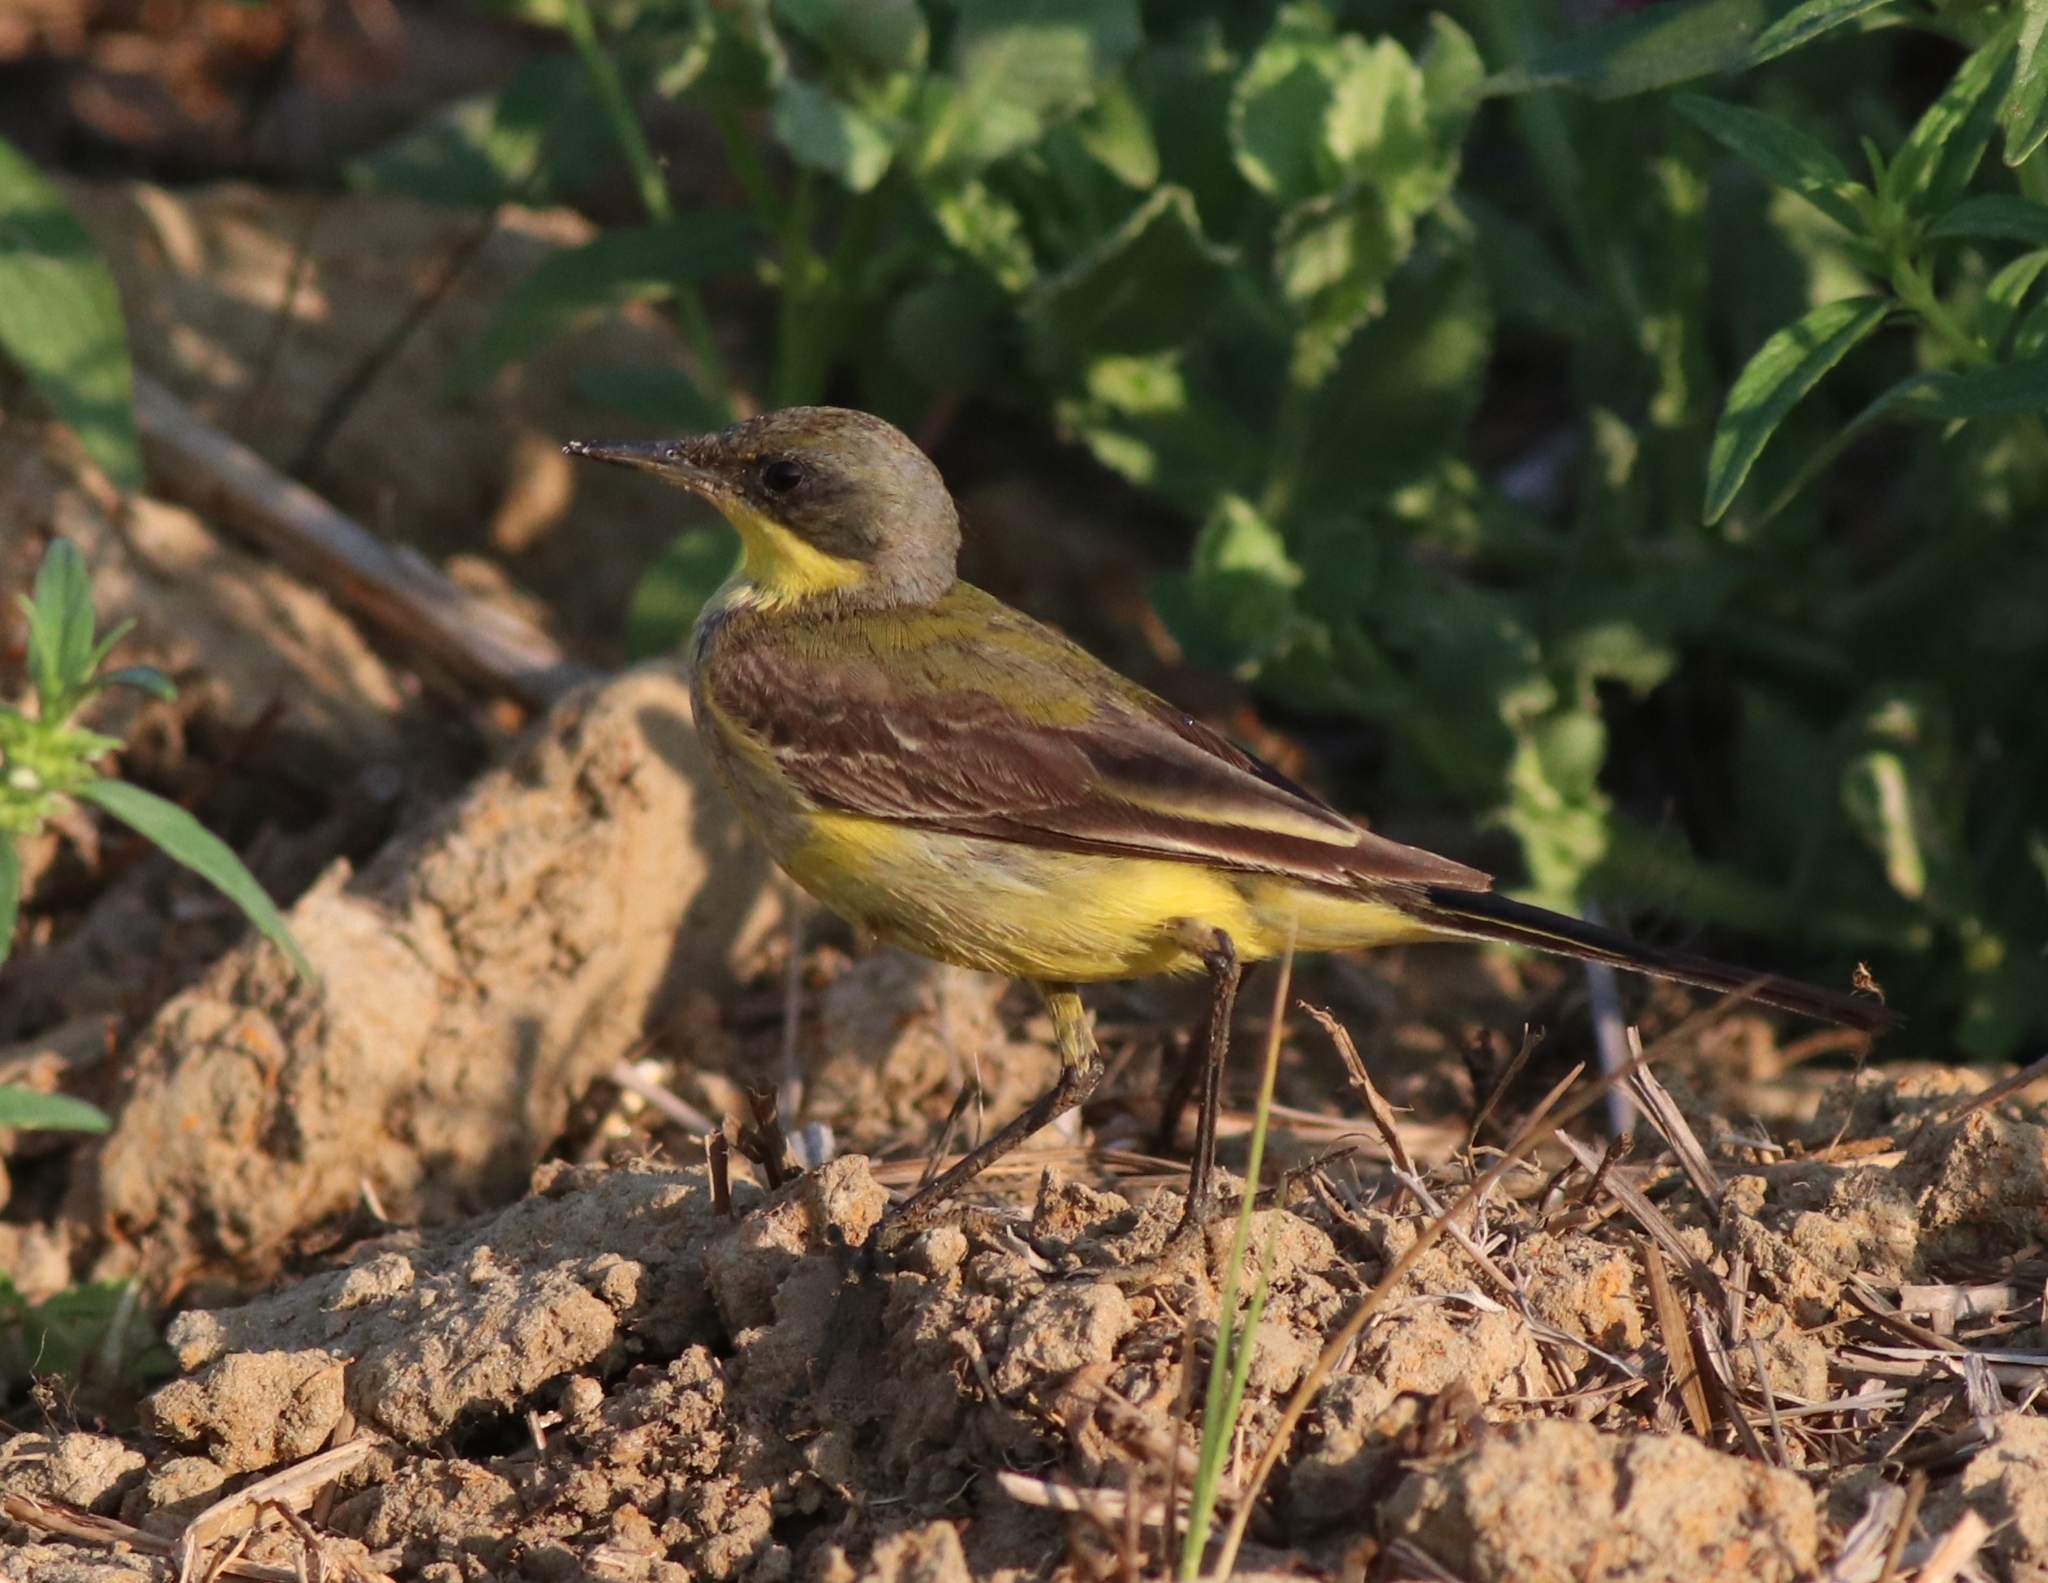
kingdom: Animalia
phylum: Chordata
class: Aves
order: Passeriformes
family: Motacillidae
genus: Motacilla
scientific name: Motacilla flava
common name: Western yellow wagtail
